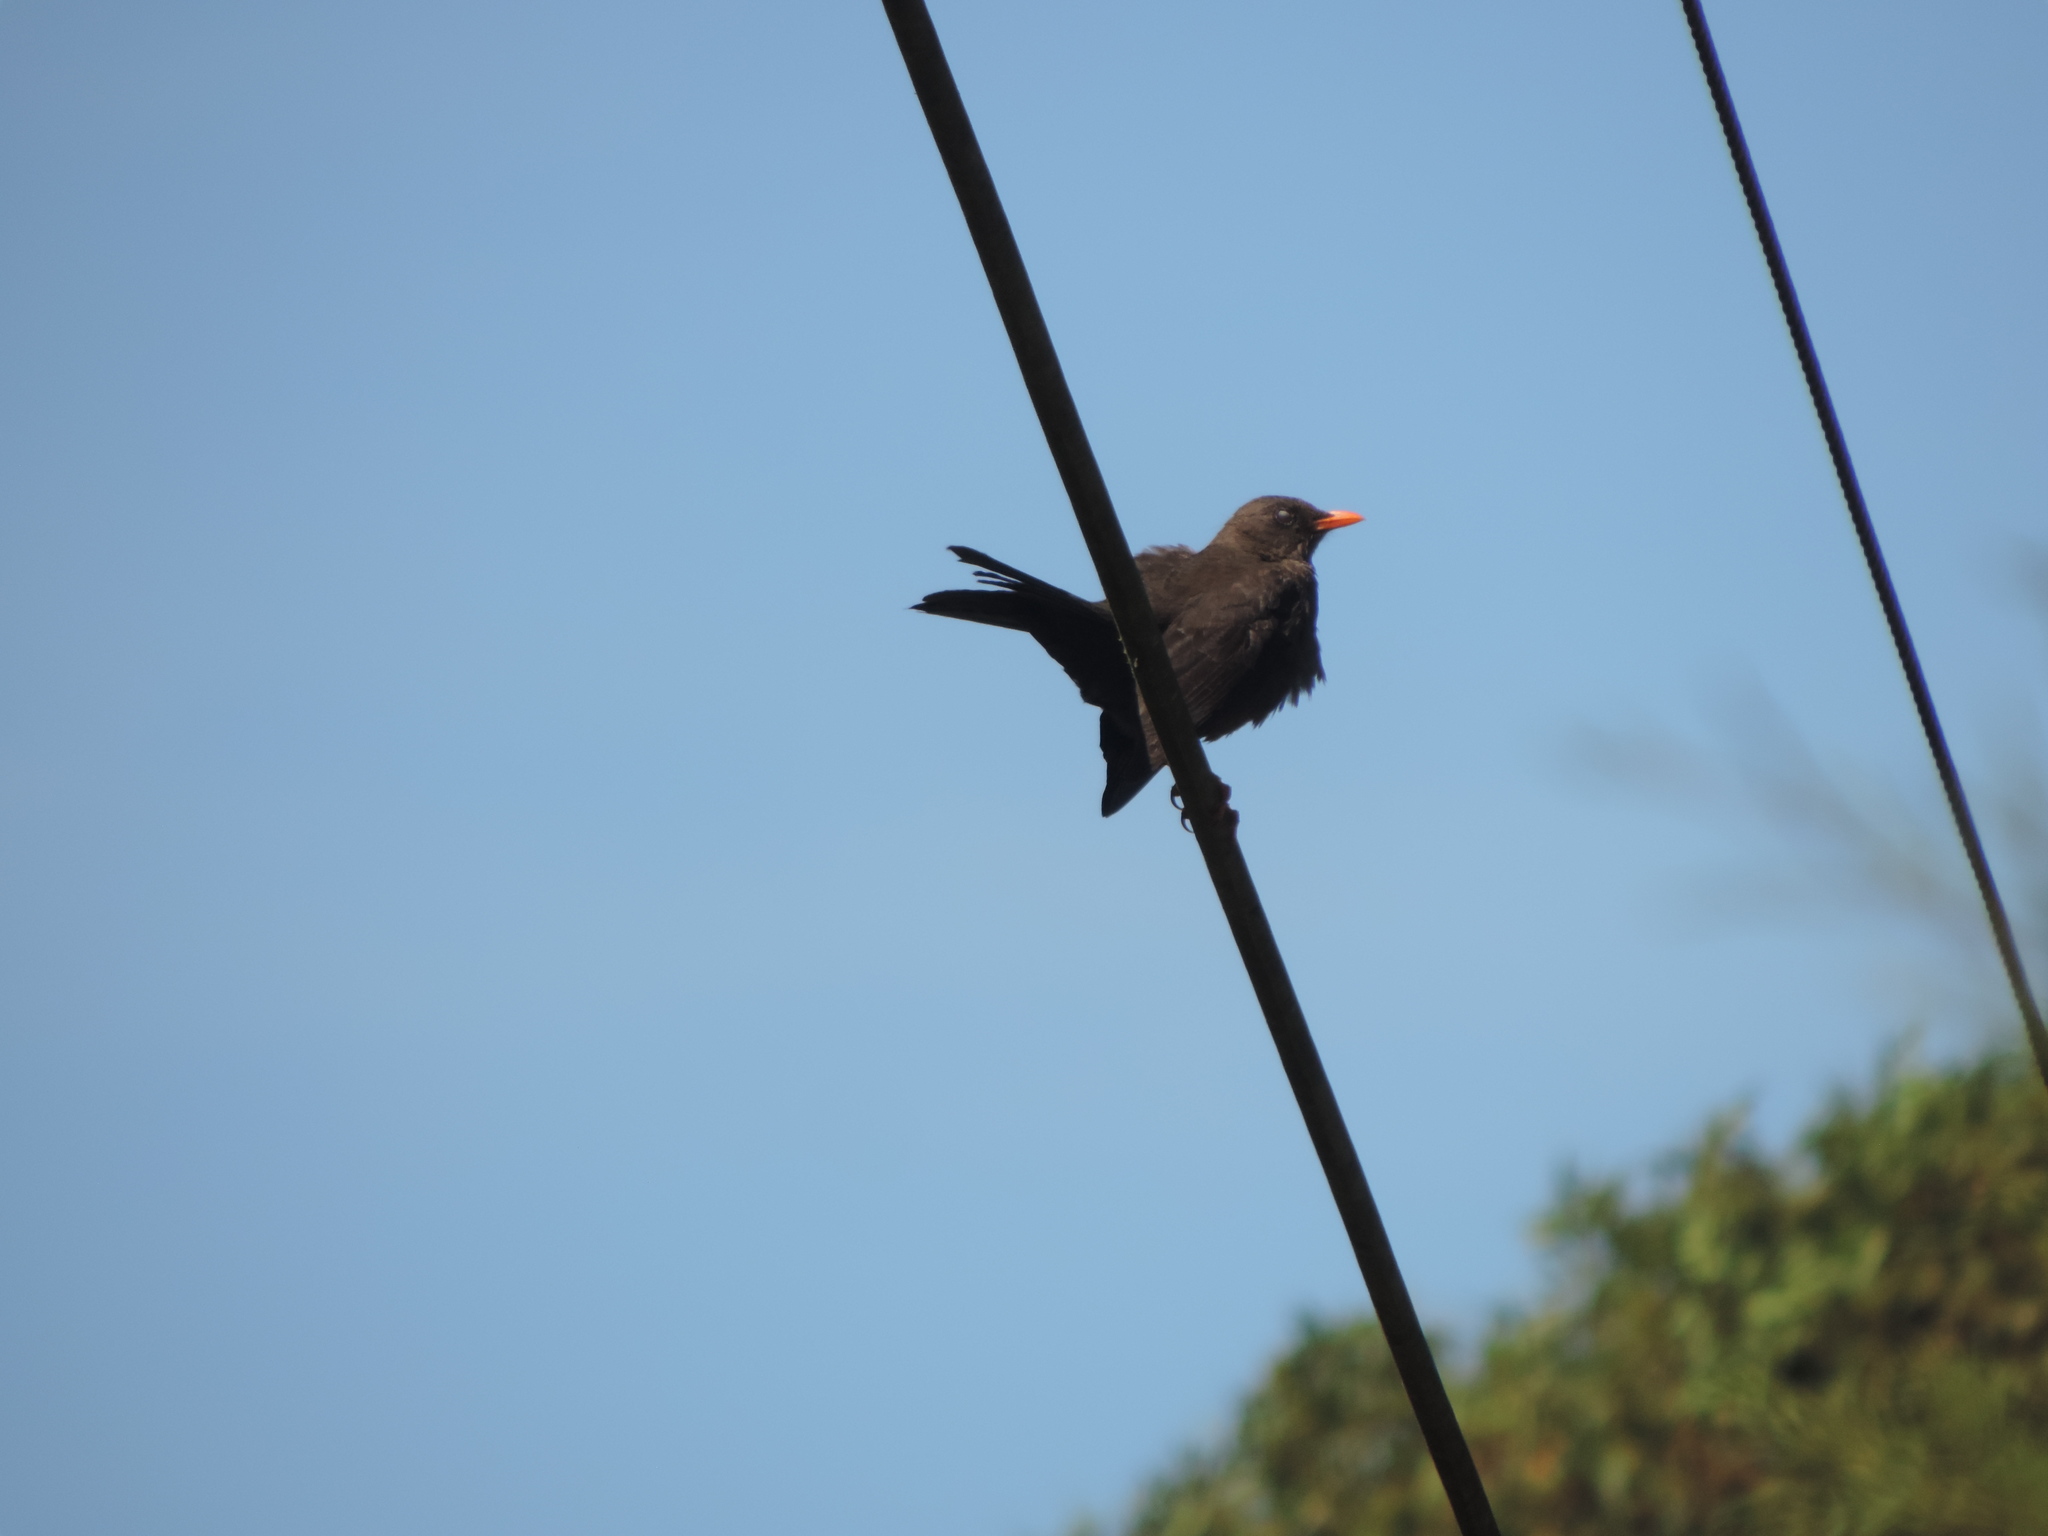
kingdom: Animalia
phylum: Chordata
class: Aves
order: Passeriformes
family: Turdidae
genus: Turdus
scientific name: Turdus fuscater
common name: Great thrush
